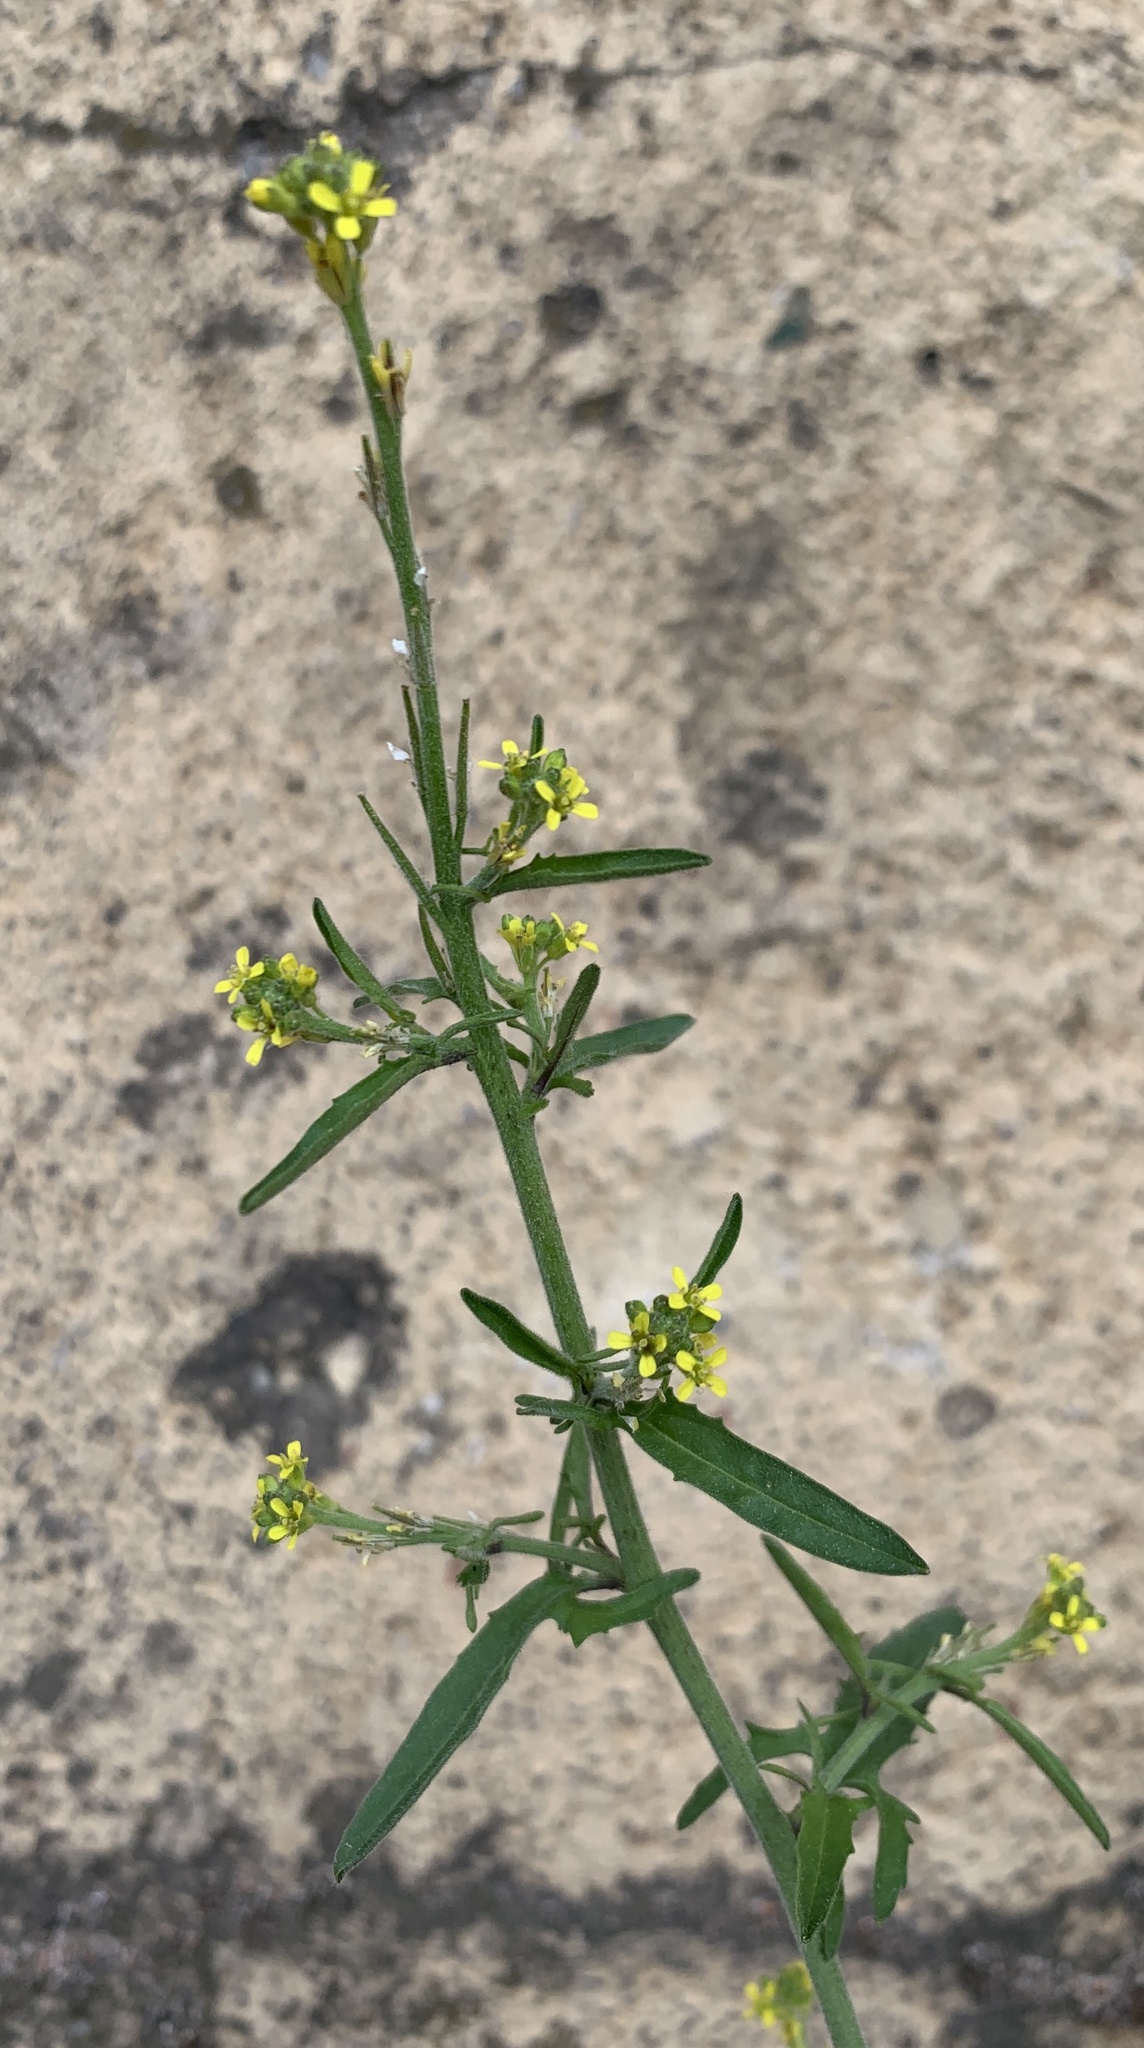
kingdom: Plantae
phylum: Tracheophyta
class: Magnoliopsida
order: Brassicales
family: Brassicaceae
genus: Sisymbrium
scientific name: Sisymbrium officinale
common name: Hedge mustard
